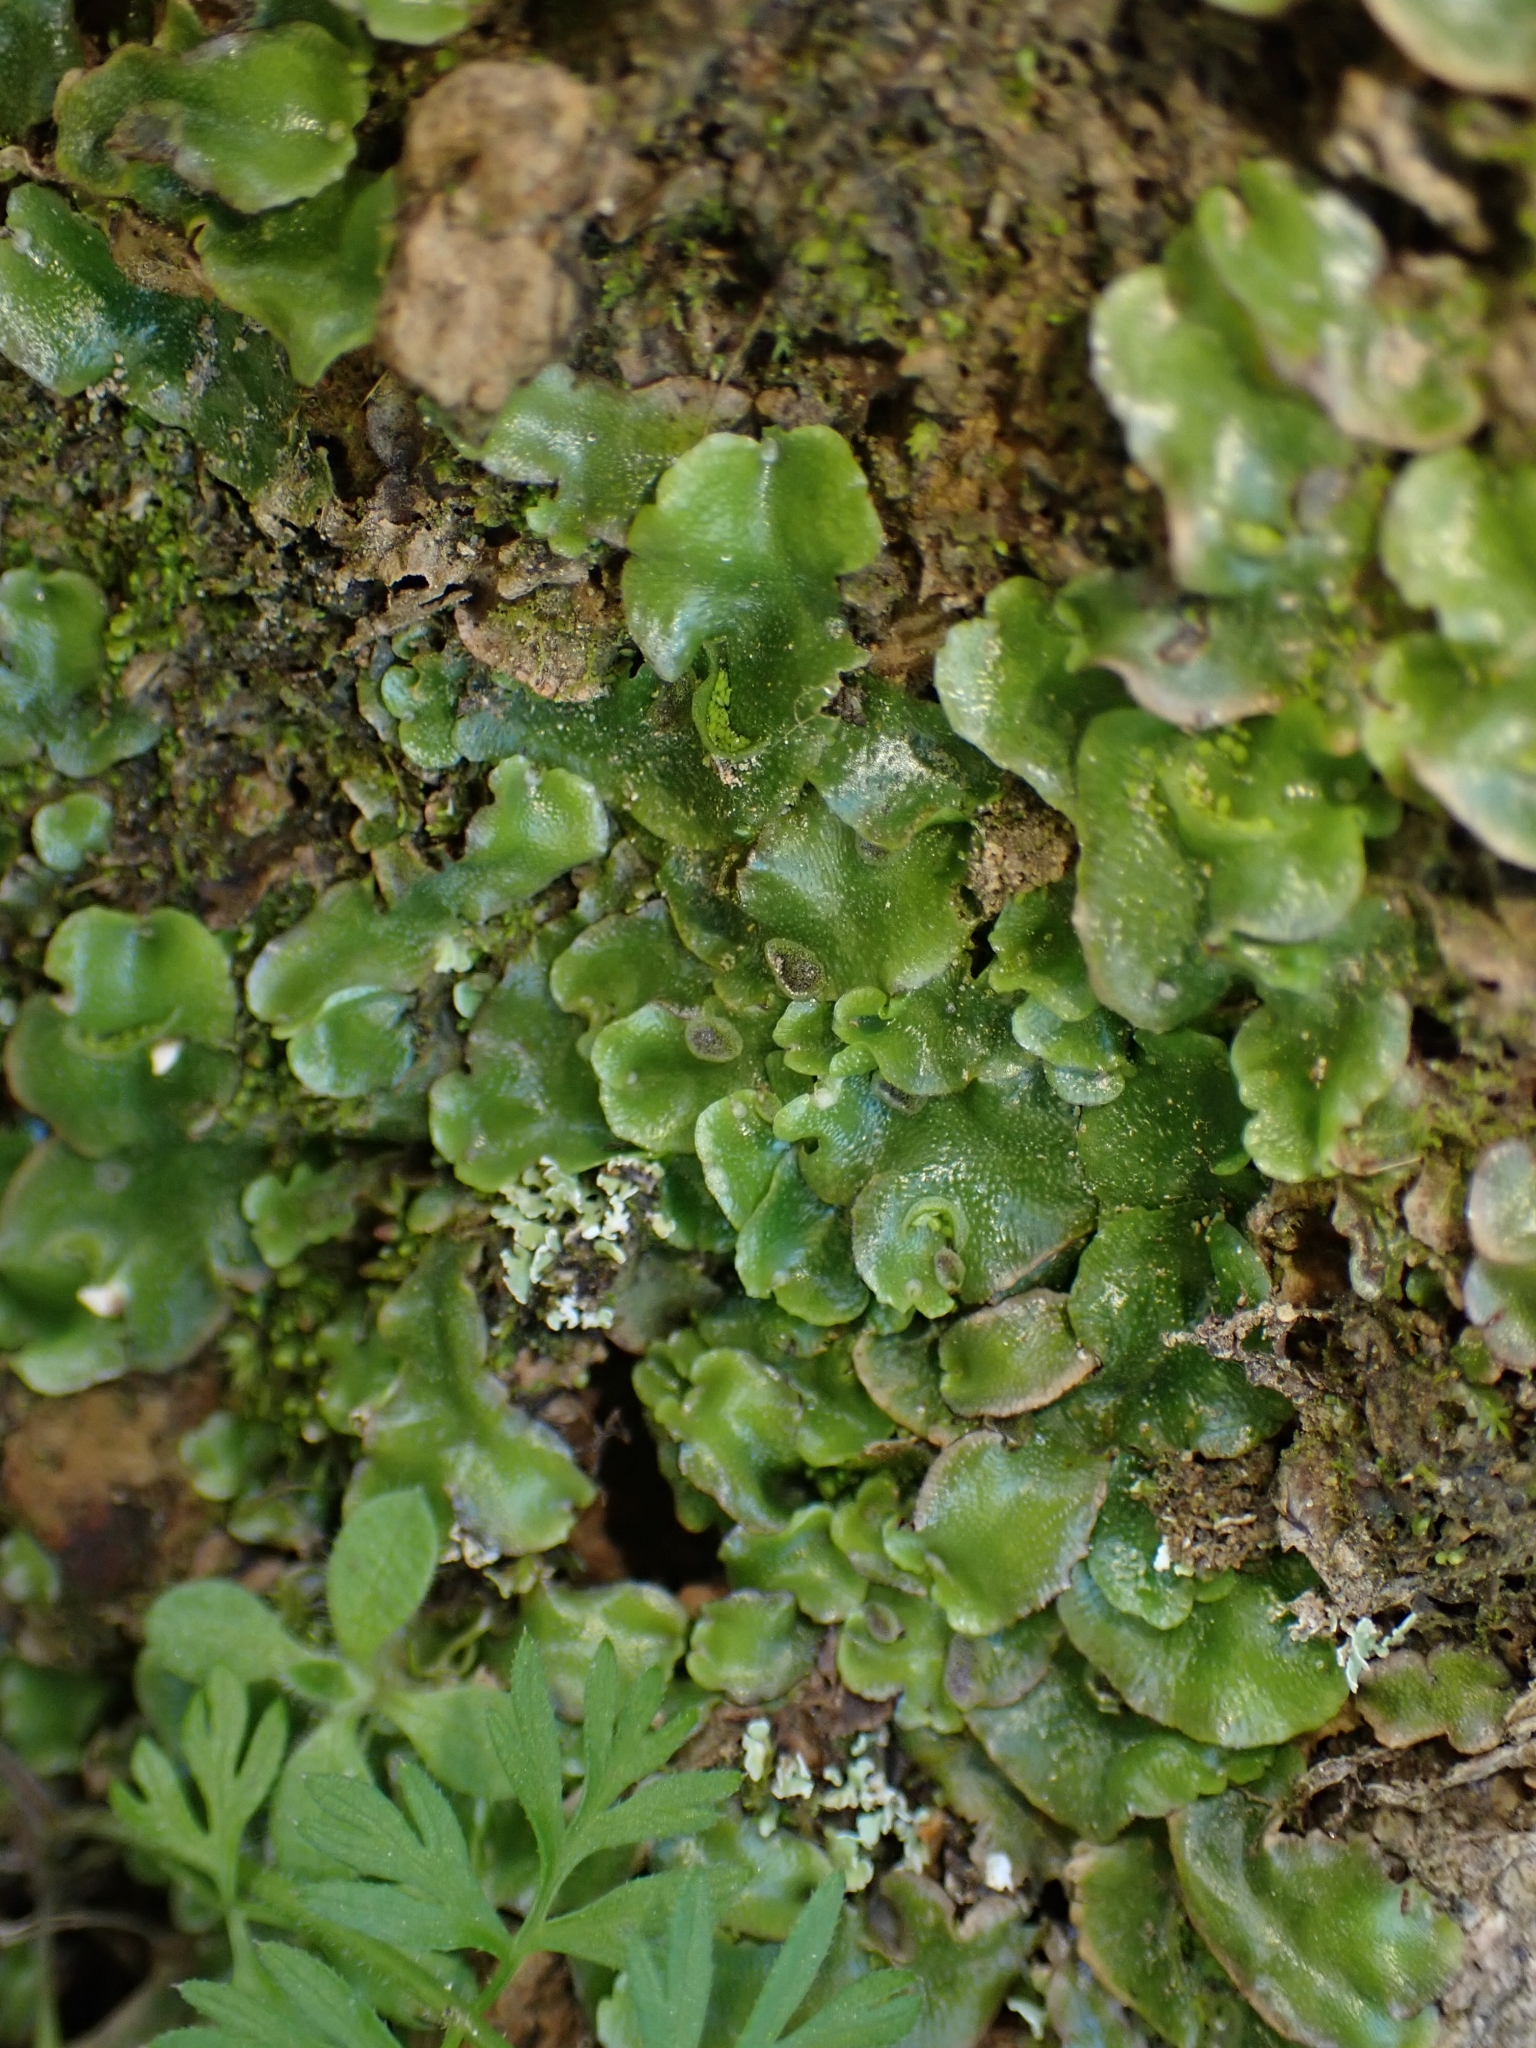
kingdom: Plantae
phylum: Marchantiophyta
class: Marchantiopsida
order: Lunulariales
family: Lunulariaceae
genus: Lunularia
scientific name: Lunularia cruciata
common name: Crescent-cup liverwort
